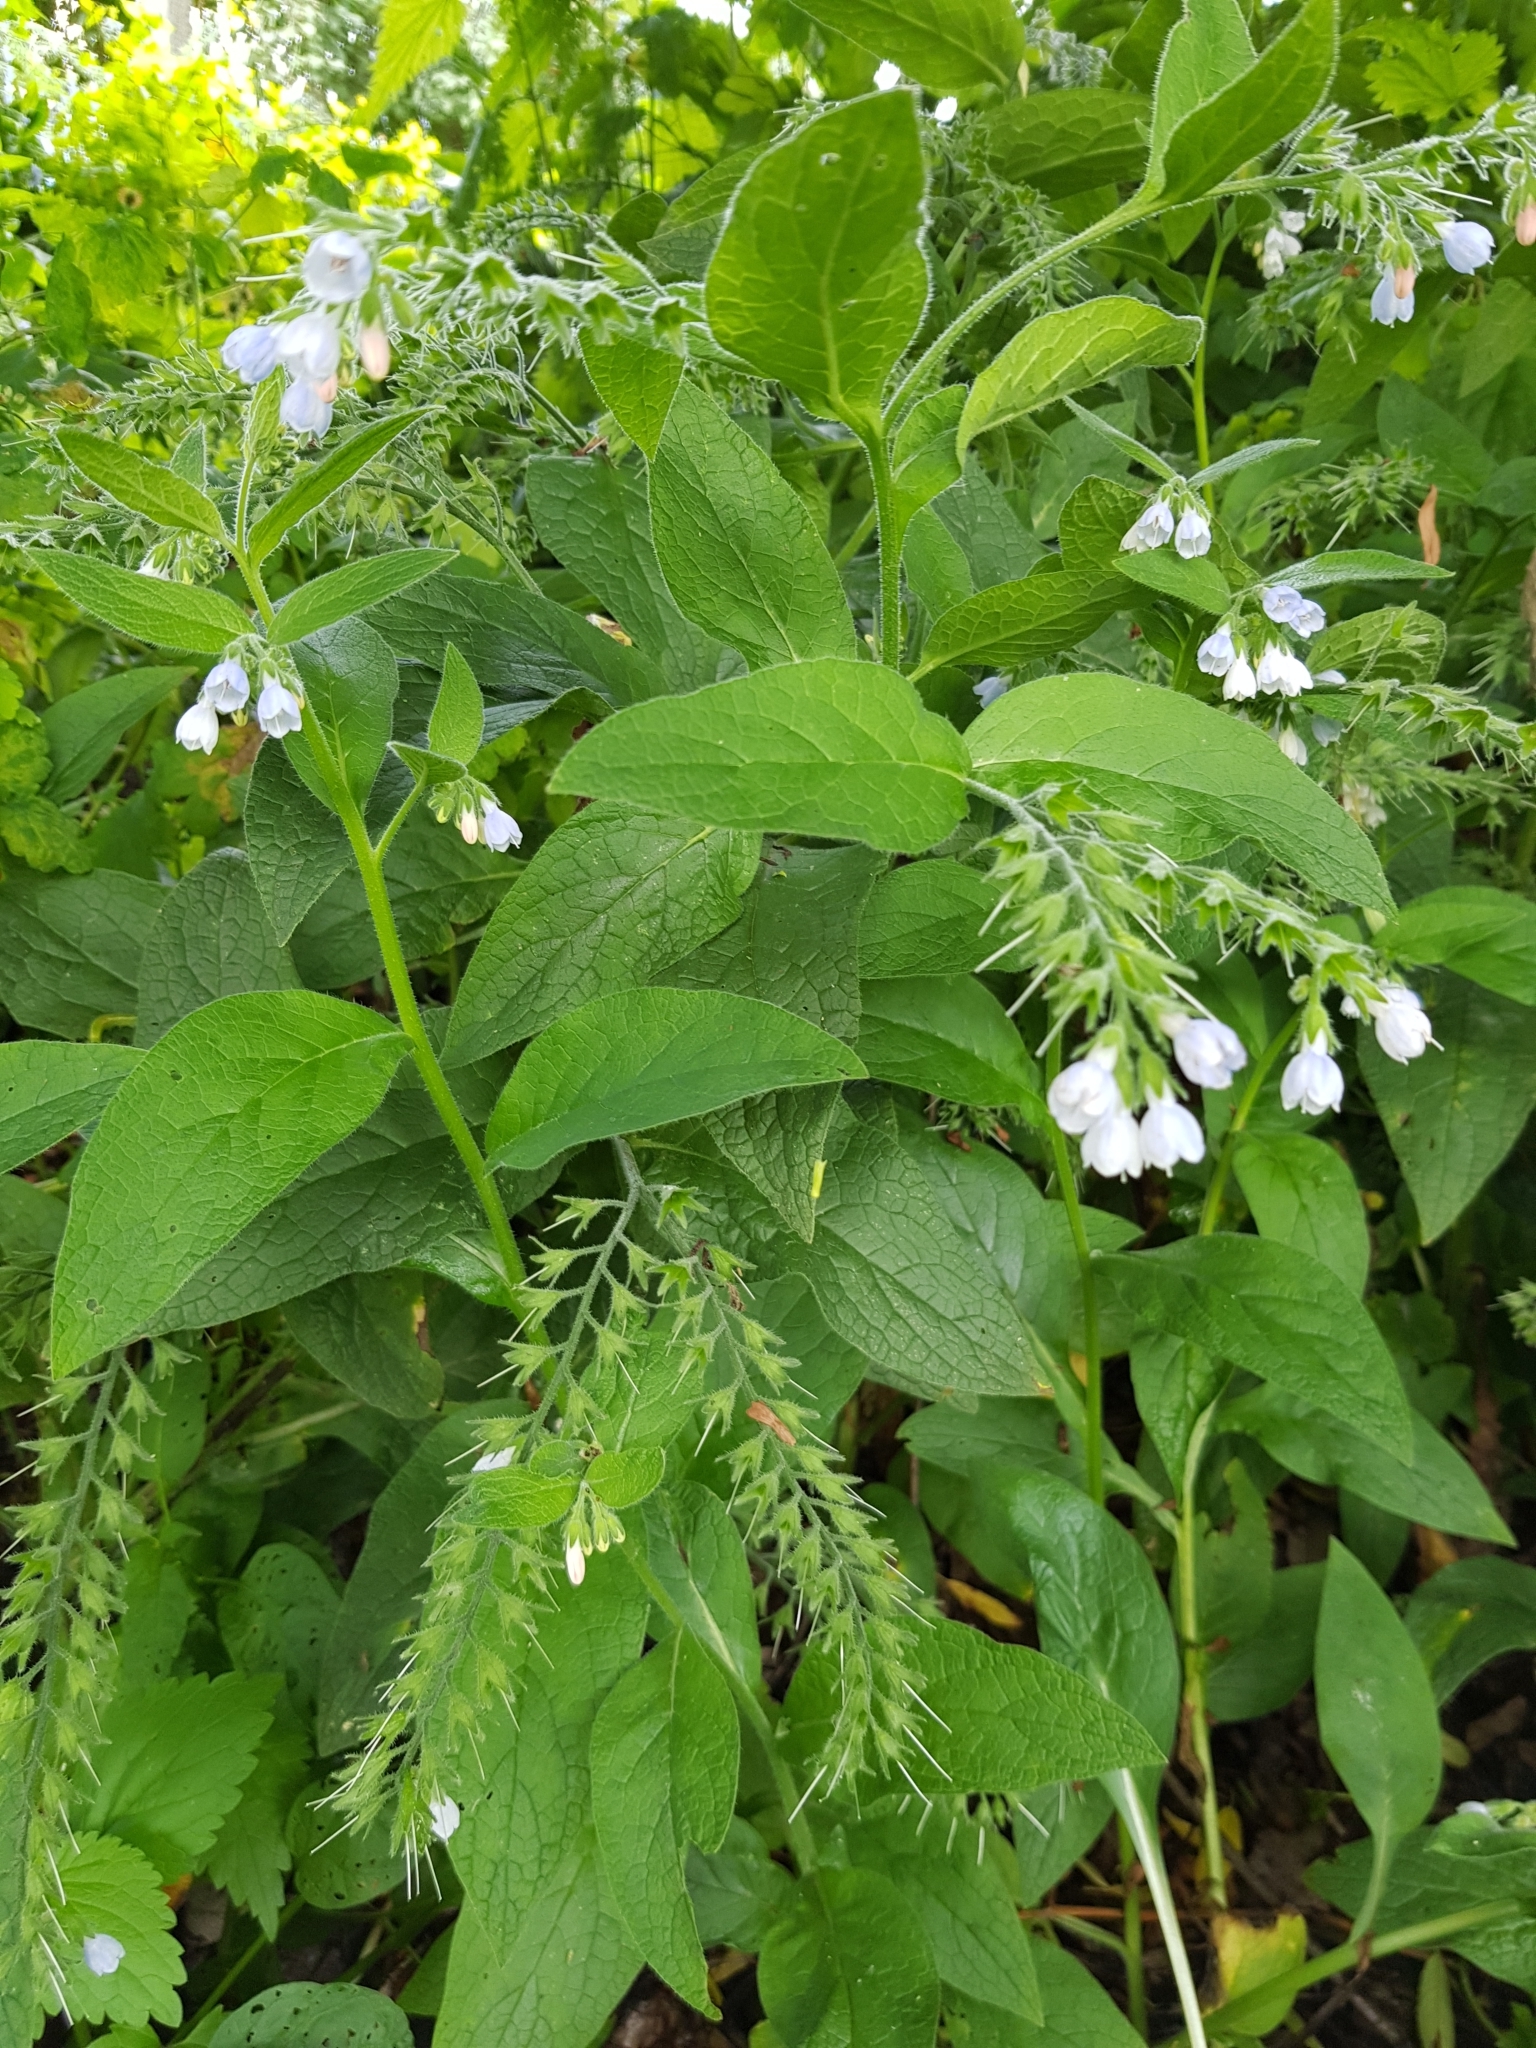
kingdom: Plantae
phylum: Tracheophyta
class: Magnoliopsida
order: Boraginales
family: Boraginaceae
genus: Symphytum
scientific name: Symphytum caucasicum
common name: Caucasian comfrey
